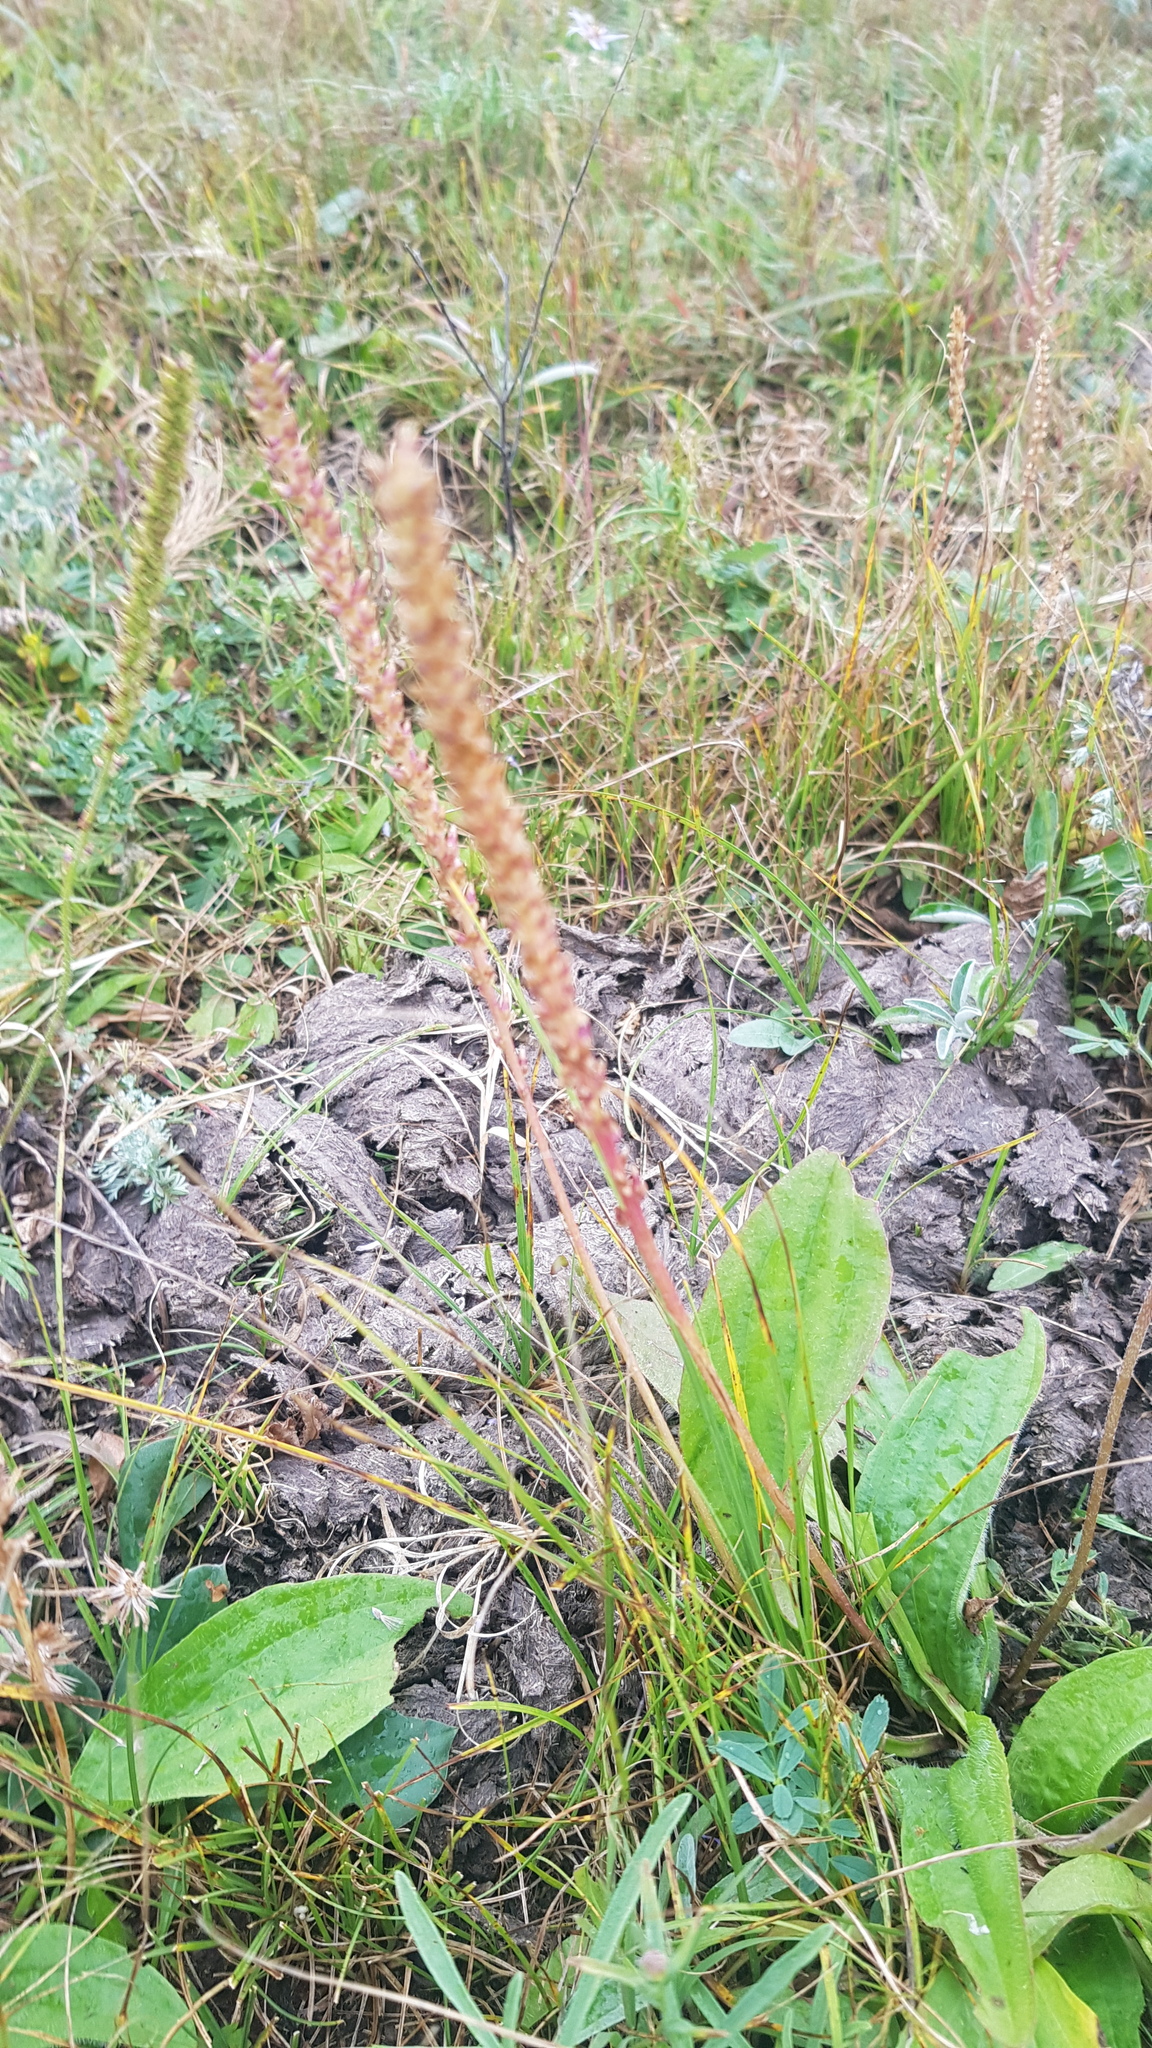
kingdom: Plantae
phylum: Tracheophyta
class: Magnoliopsida
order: Lamiales
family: Plantaginaceae
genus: Plantago
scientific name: Plantago depressa
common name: Depressed plantain
